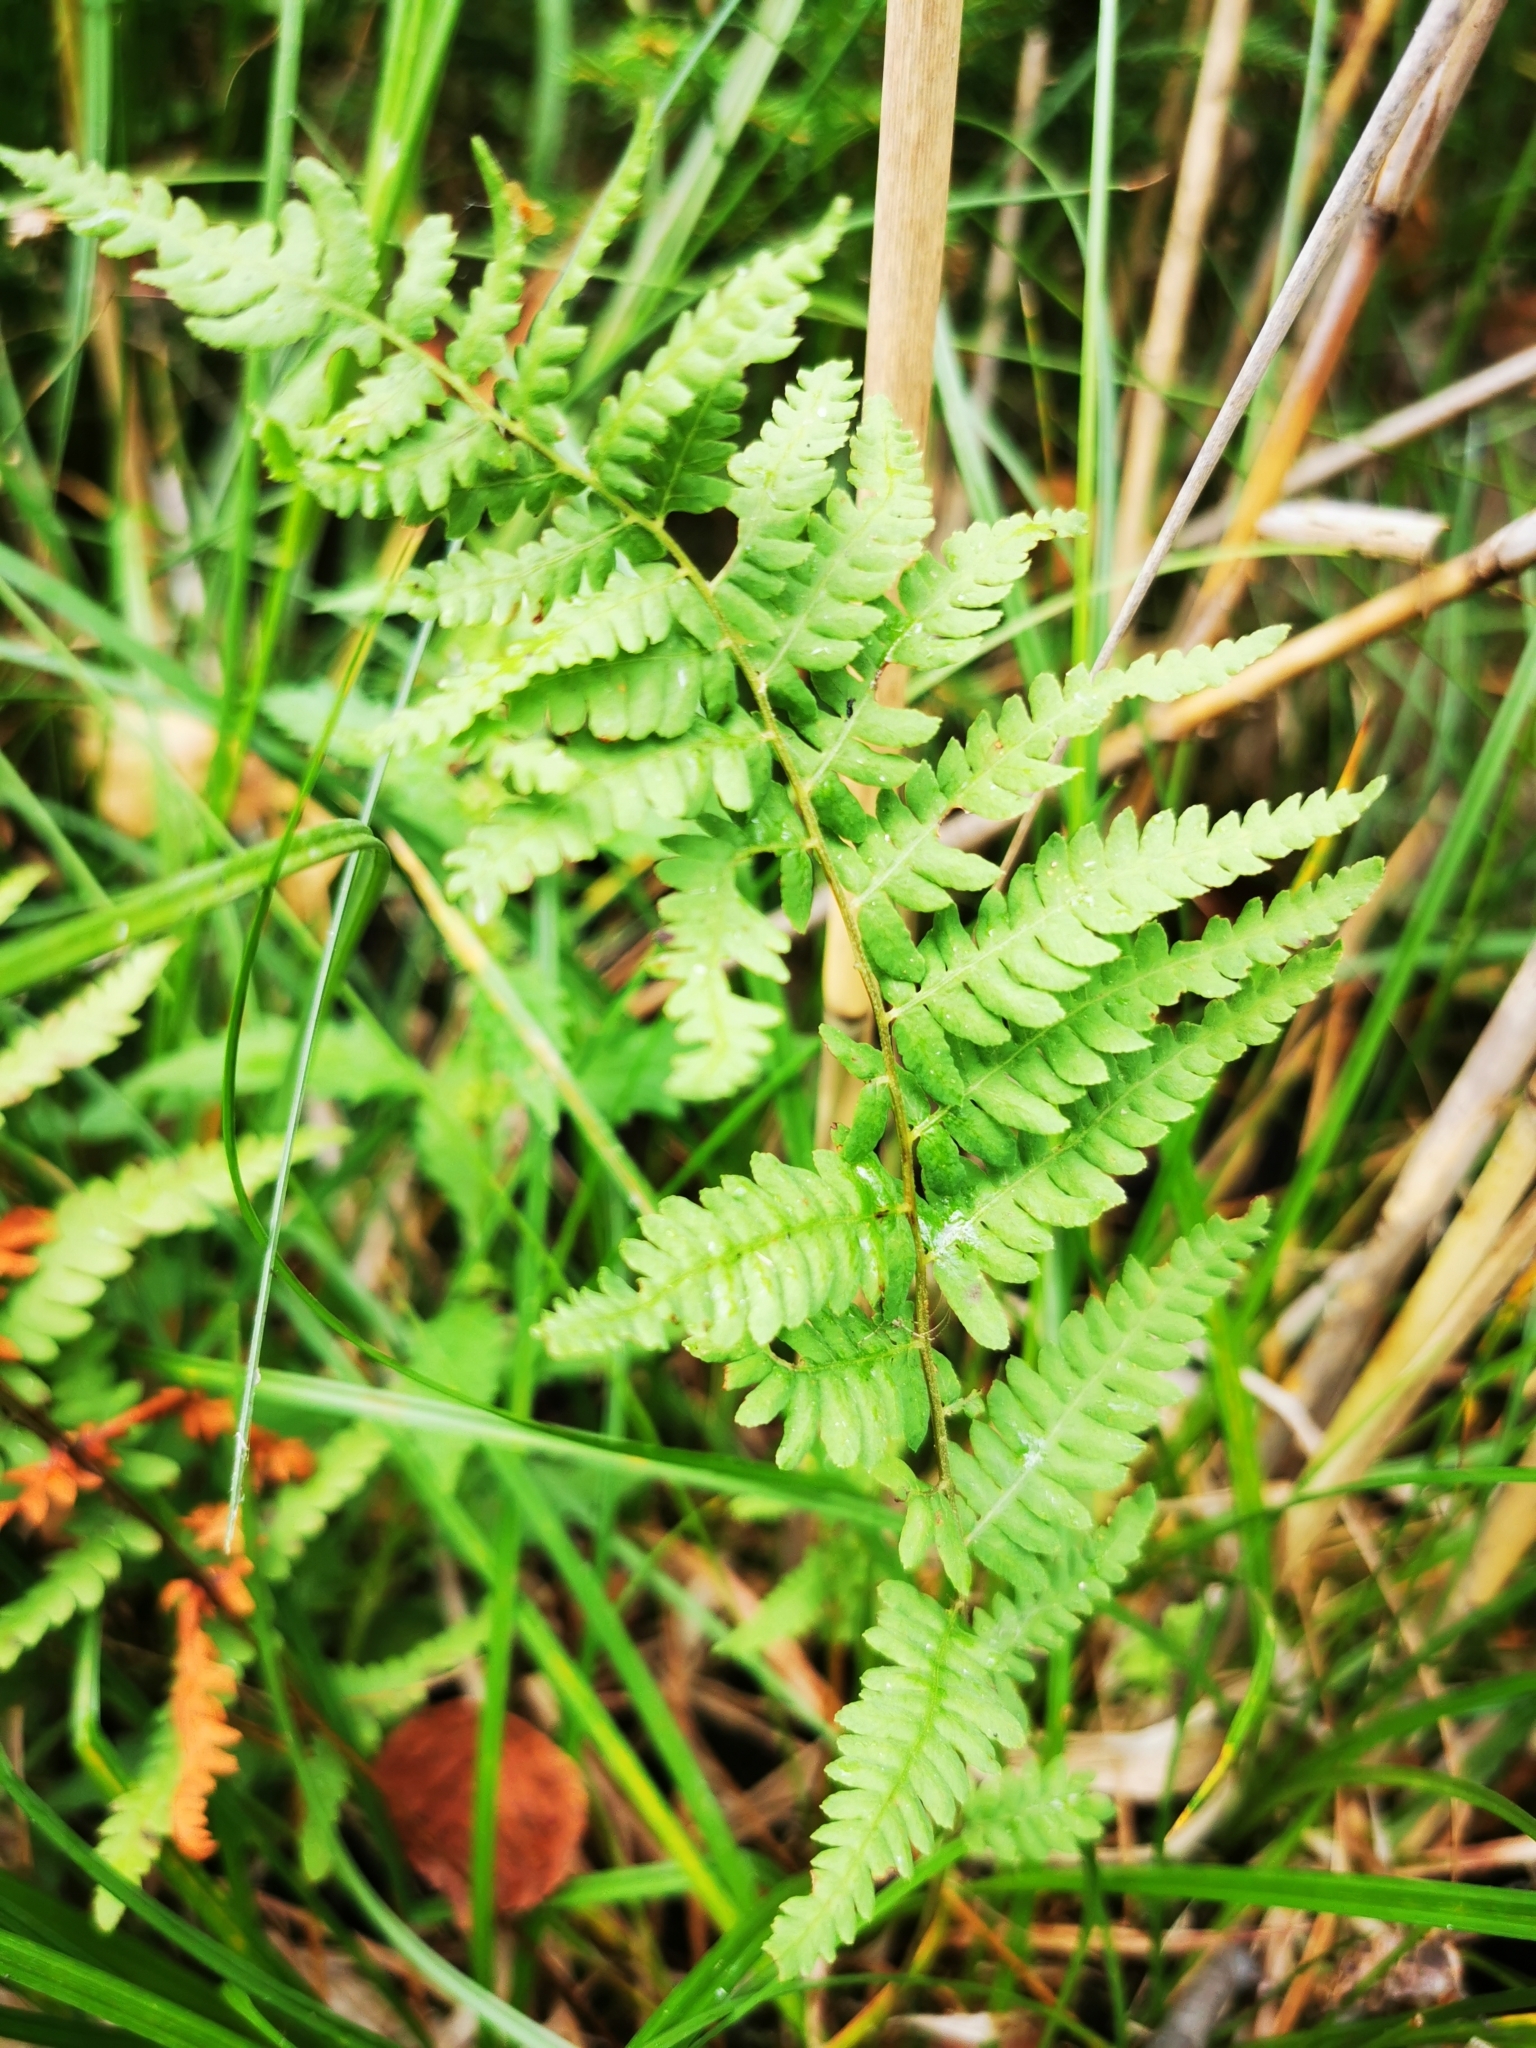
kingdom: Plantae
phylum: Tracheophyta
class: Polypodiopsida
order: Polypodiales
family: Thelypteridaceae
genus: Thelypteris
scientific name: Thelypteris palustris
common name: Marsh fern
